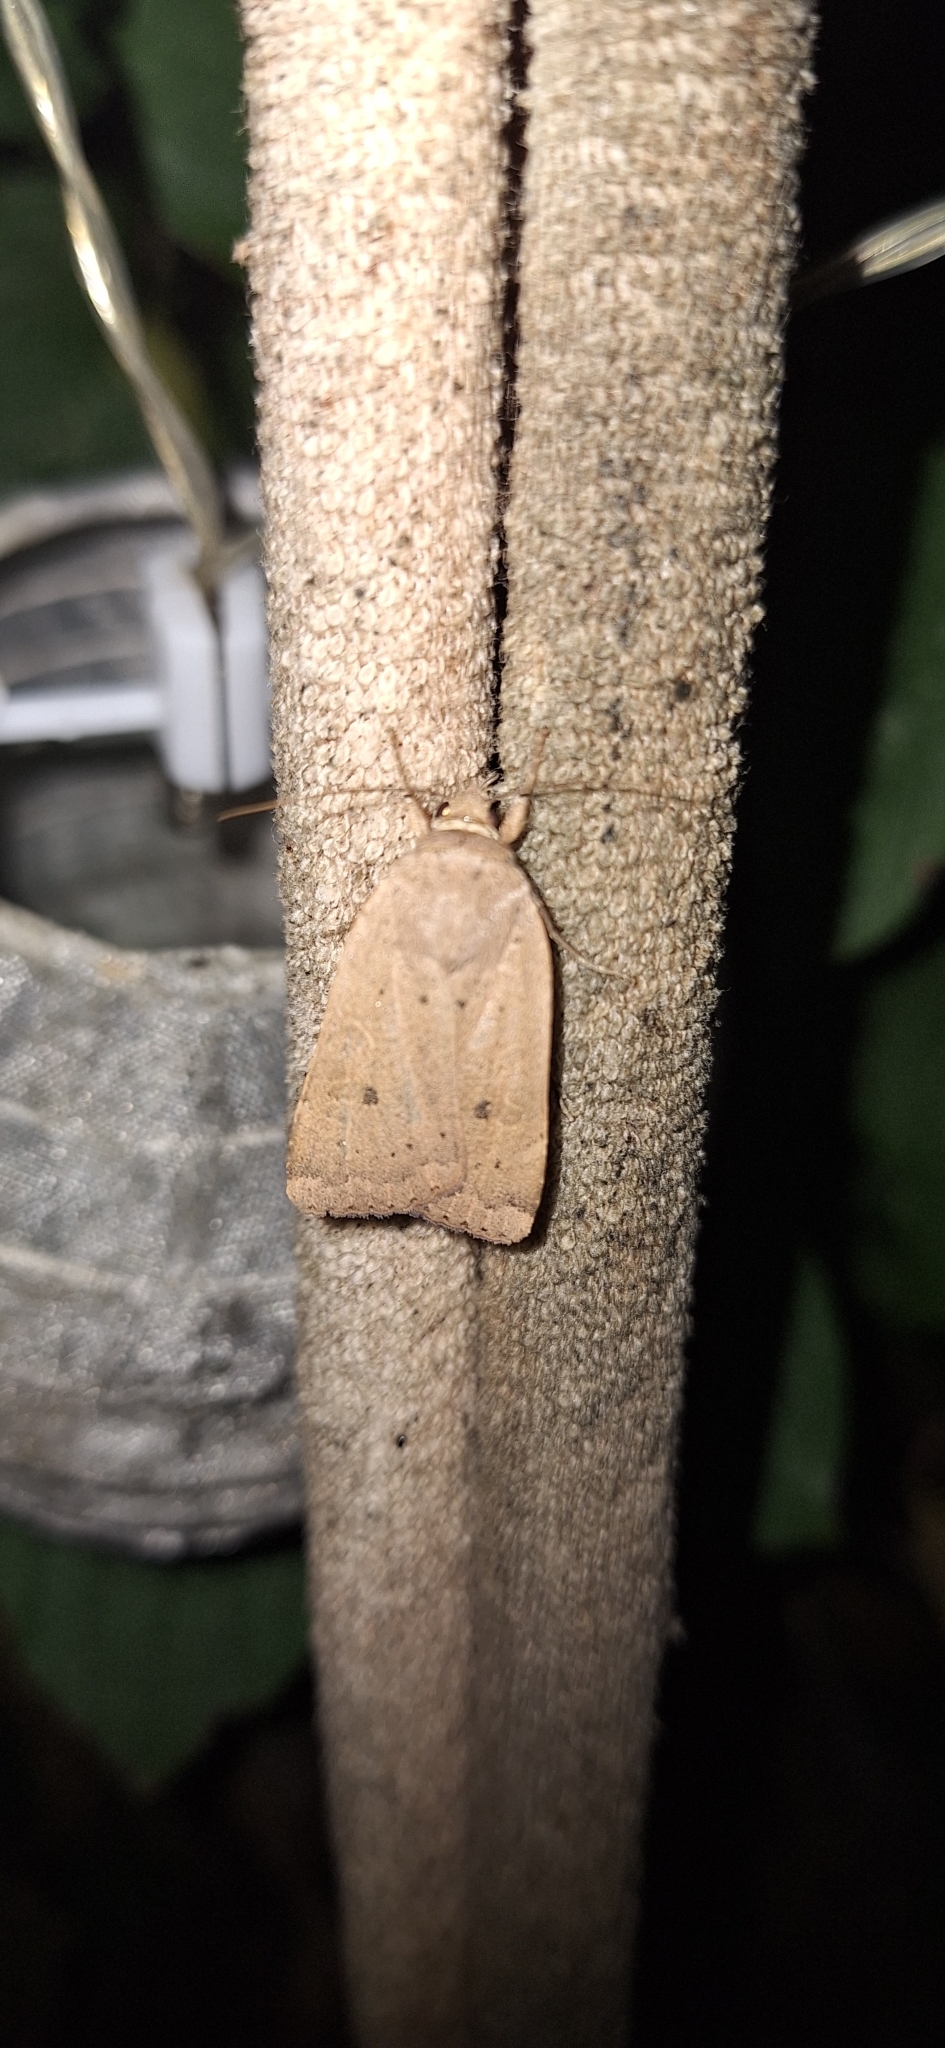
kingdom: Animalia
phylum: Arthropoda
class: Insecta
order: Lepidoptera
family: Noctuidae
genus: Noctua
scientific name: Noctua comes
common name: Lesser yellow underwing
